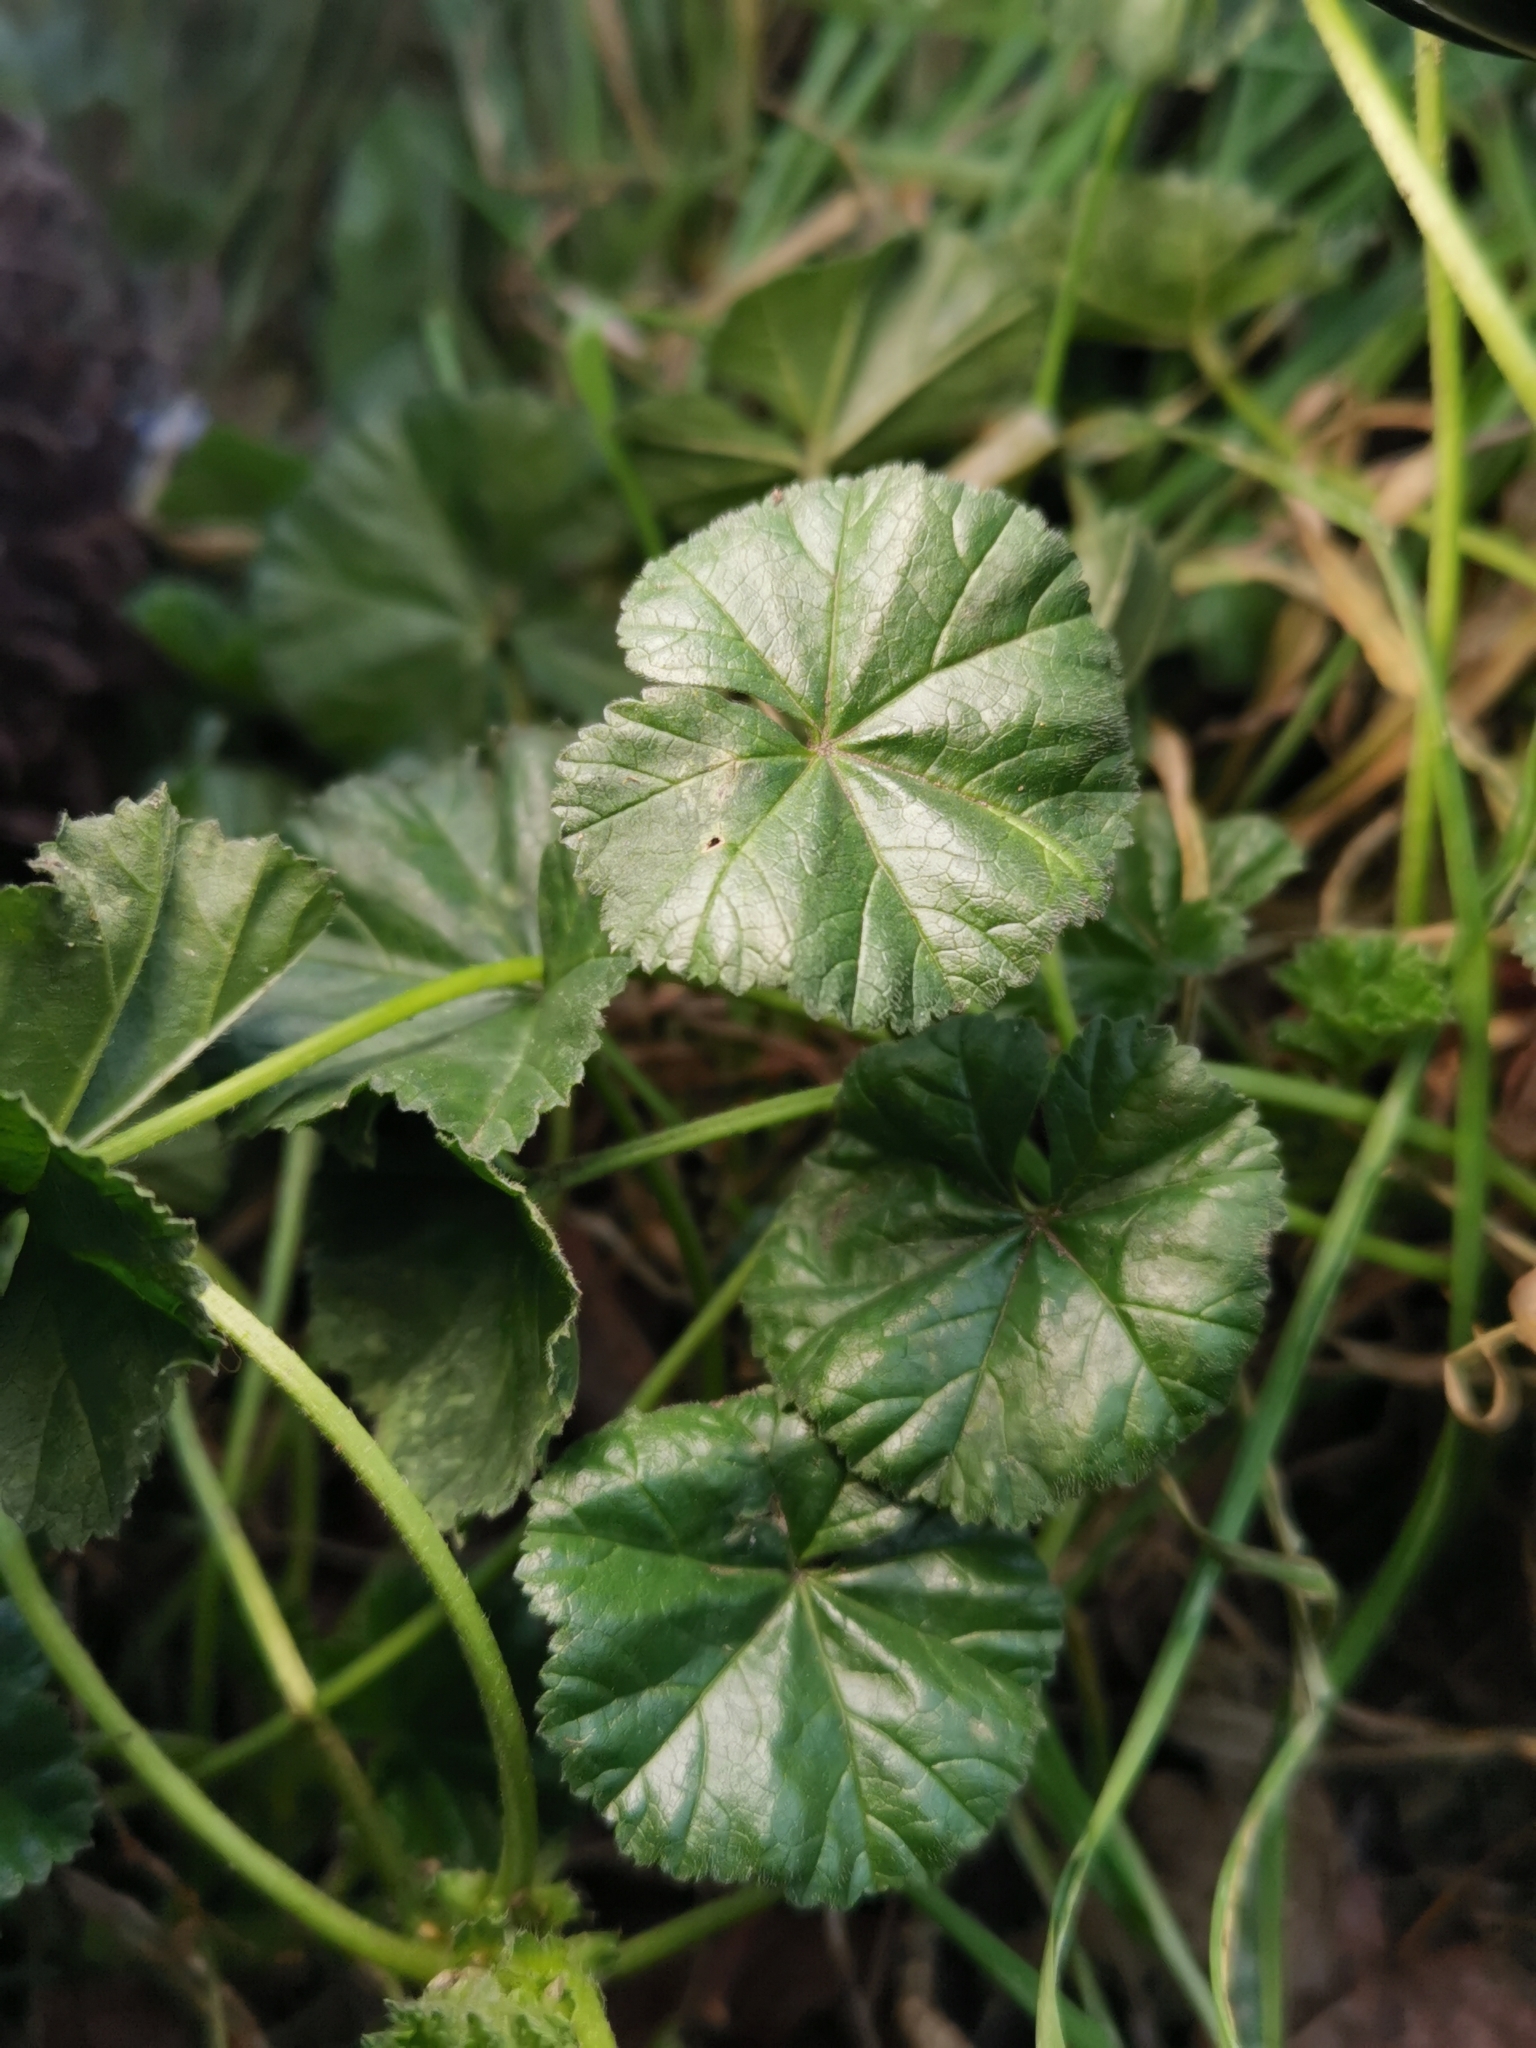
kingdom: Plantae
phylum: Tracheophyta
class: Magnoliopsida
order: Malvales
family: Malvaceae
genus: Malva
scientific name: Malva neglecta
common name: Common mallow
